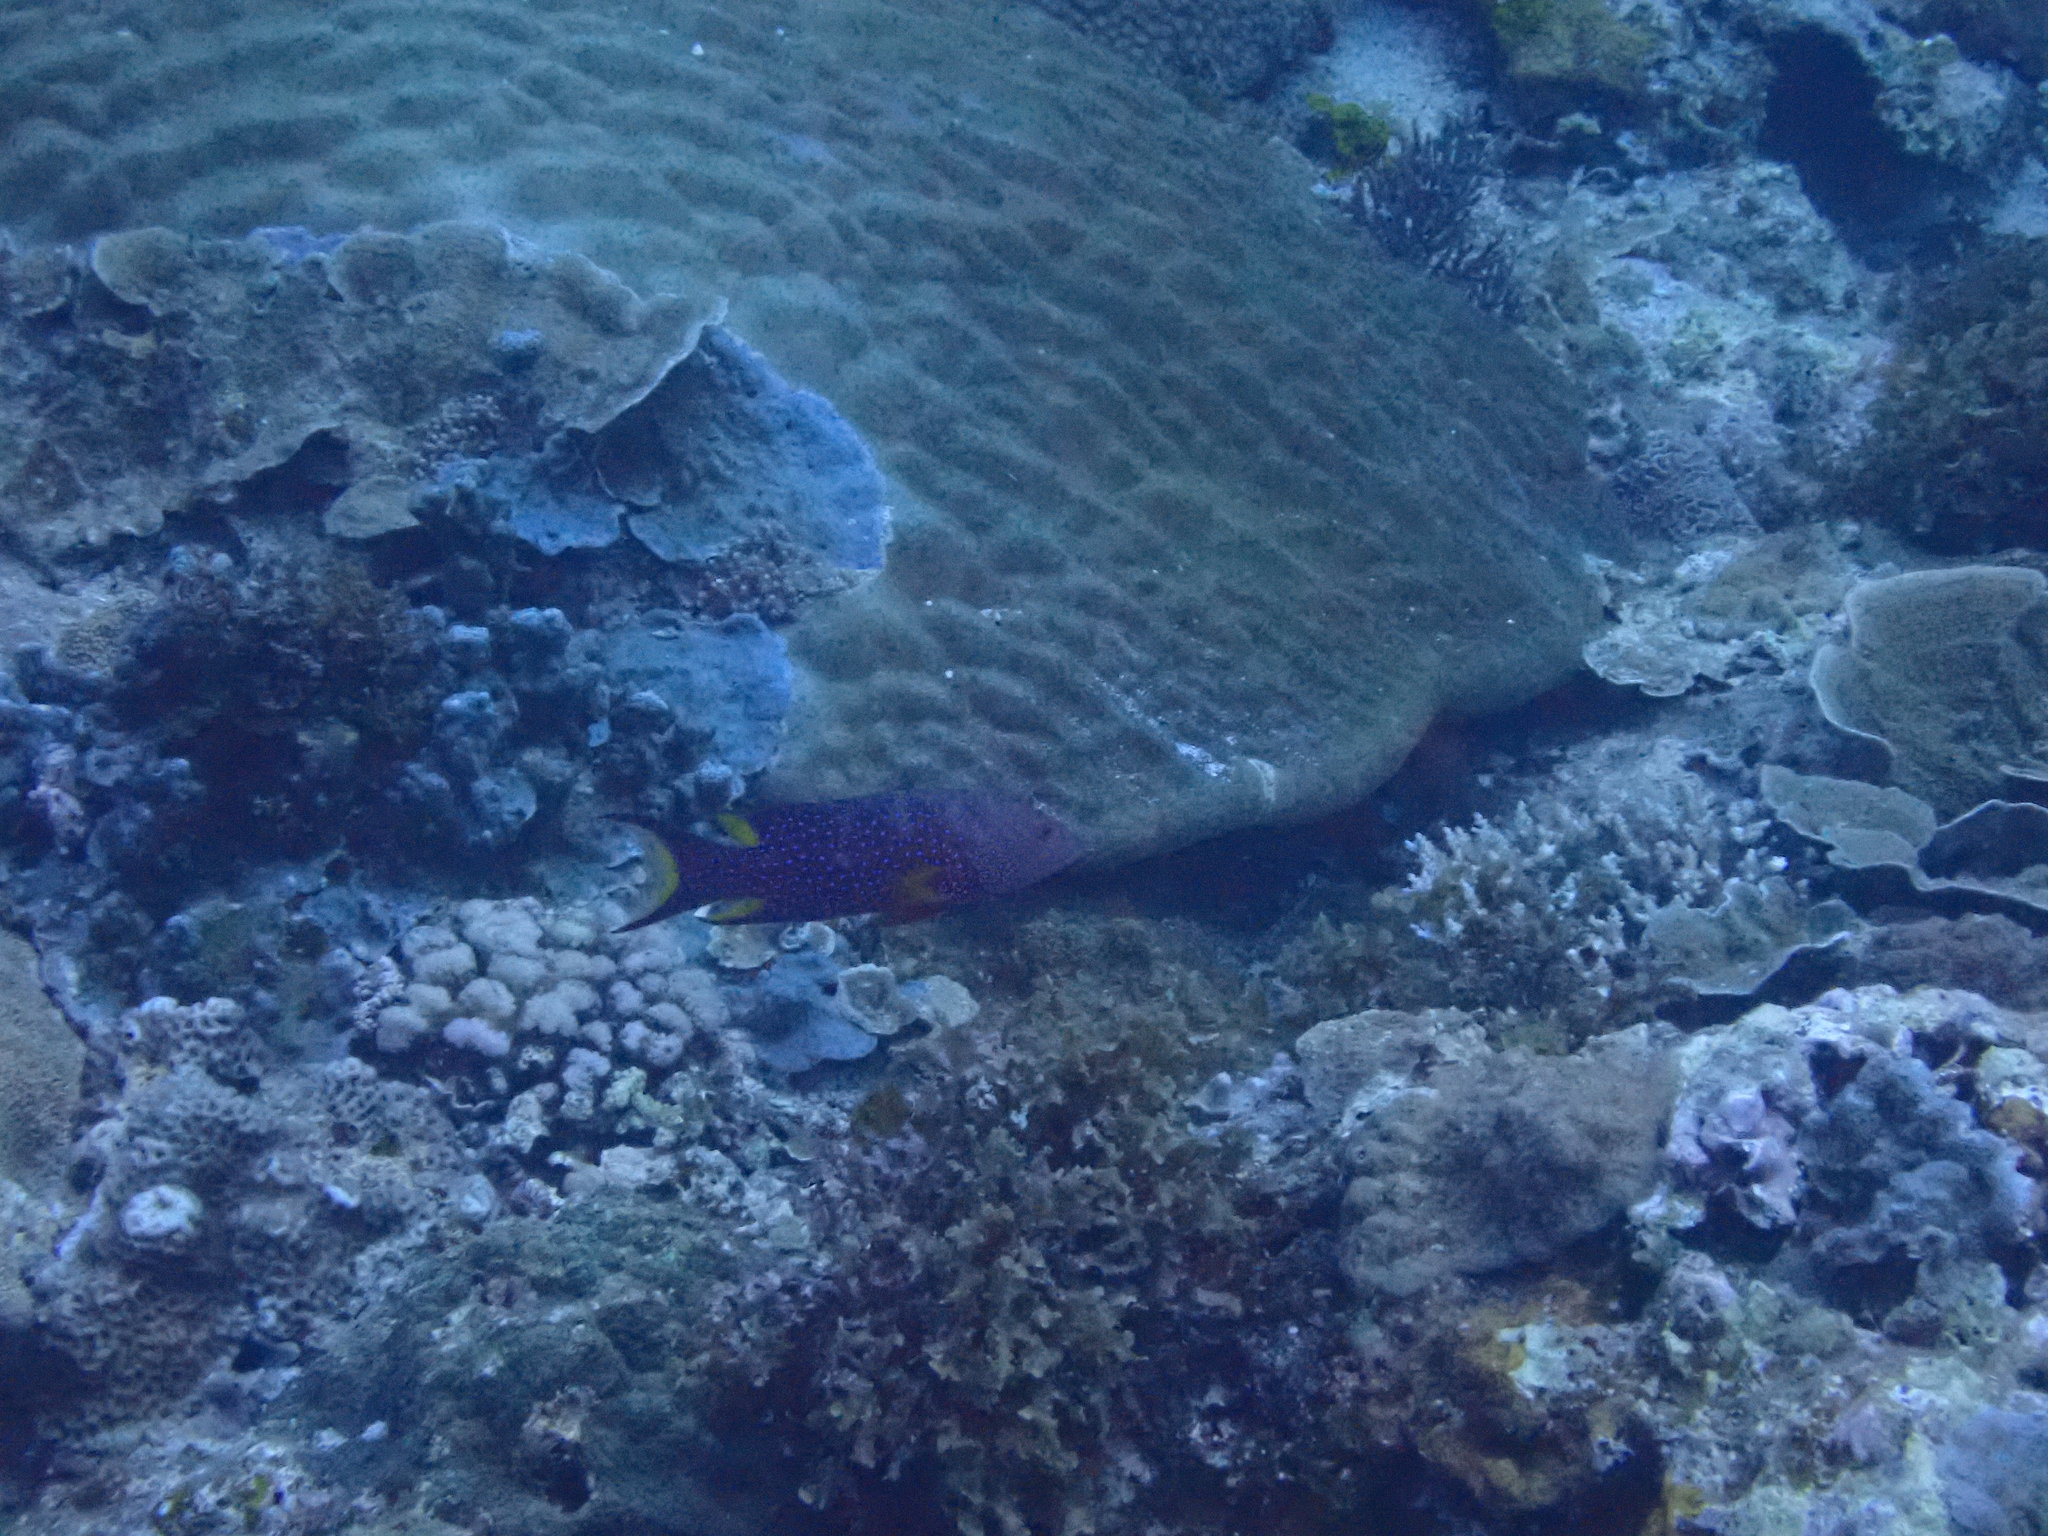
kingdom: Animalia
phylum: Chordata
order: Perciformes
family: Serranidae
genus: Variola
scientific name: Variola louti
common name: Yellow-edged lyretail
